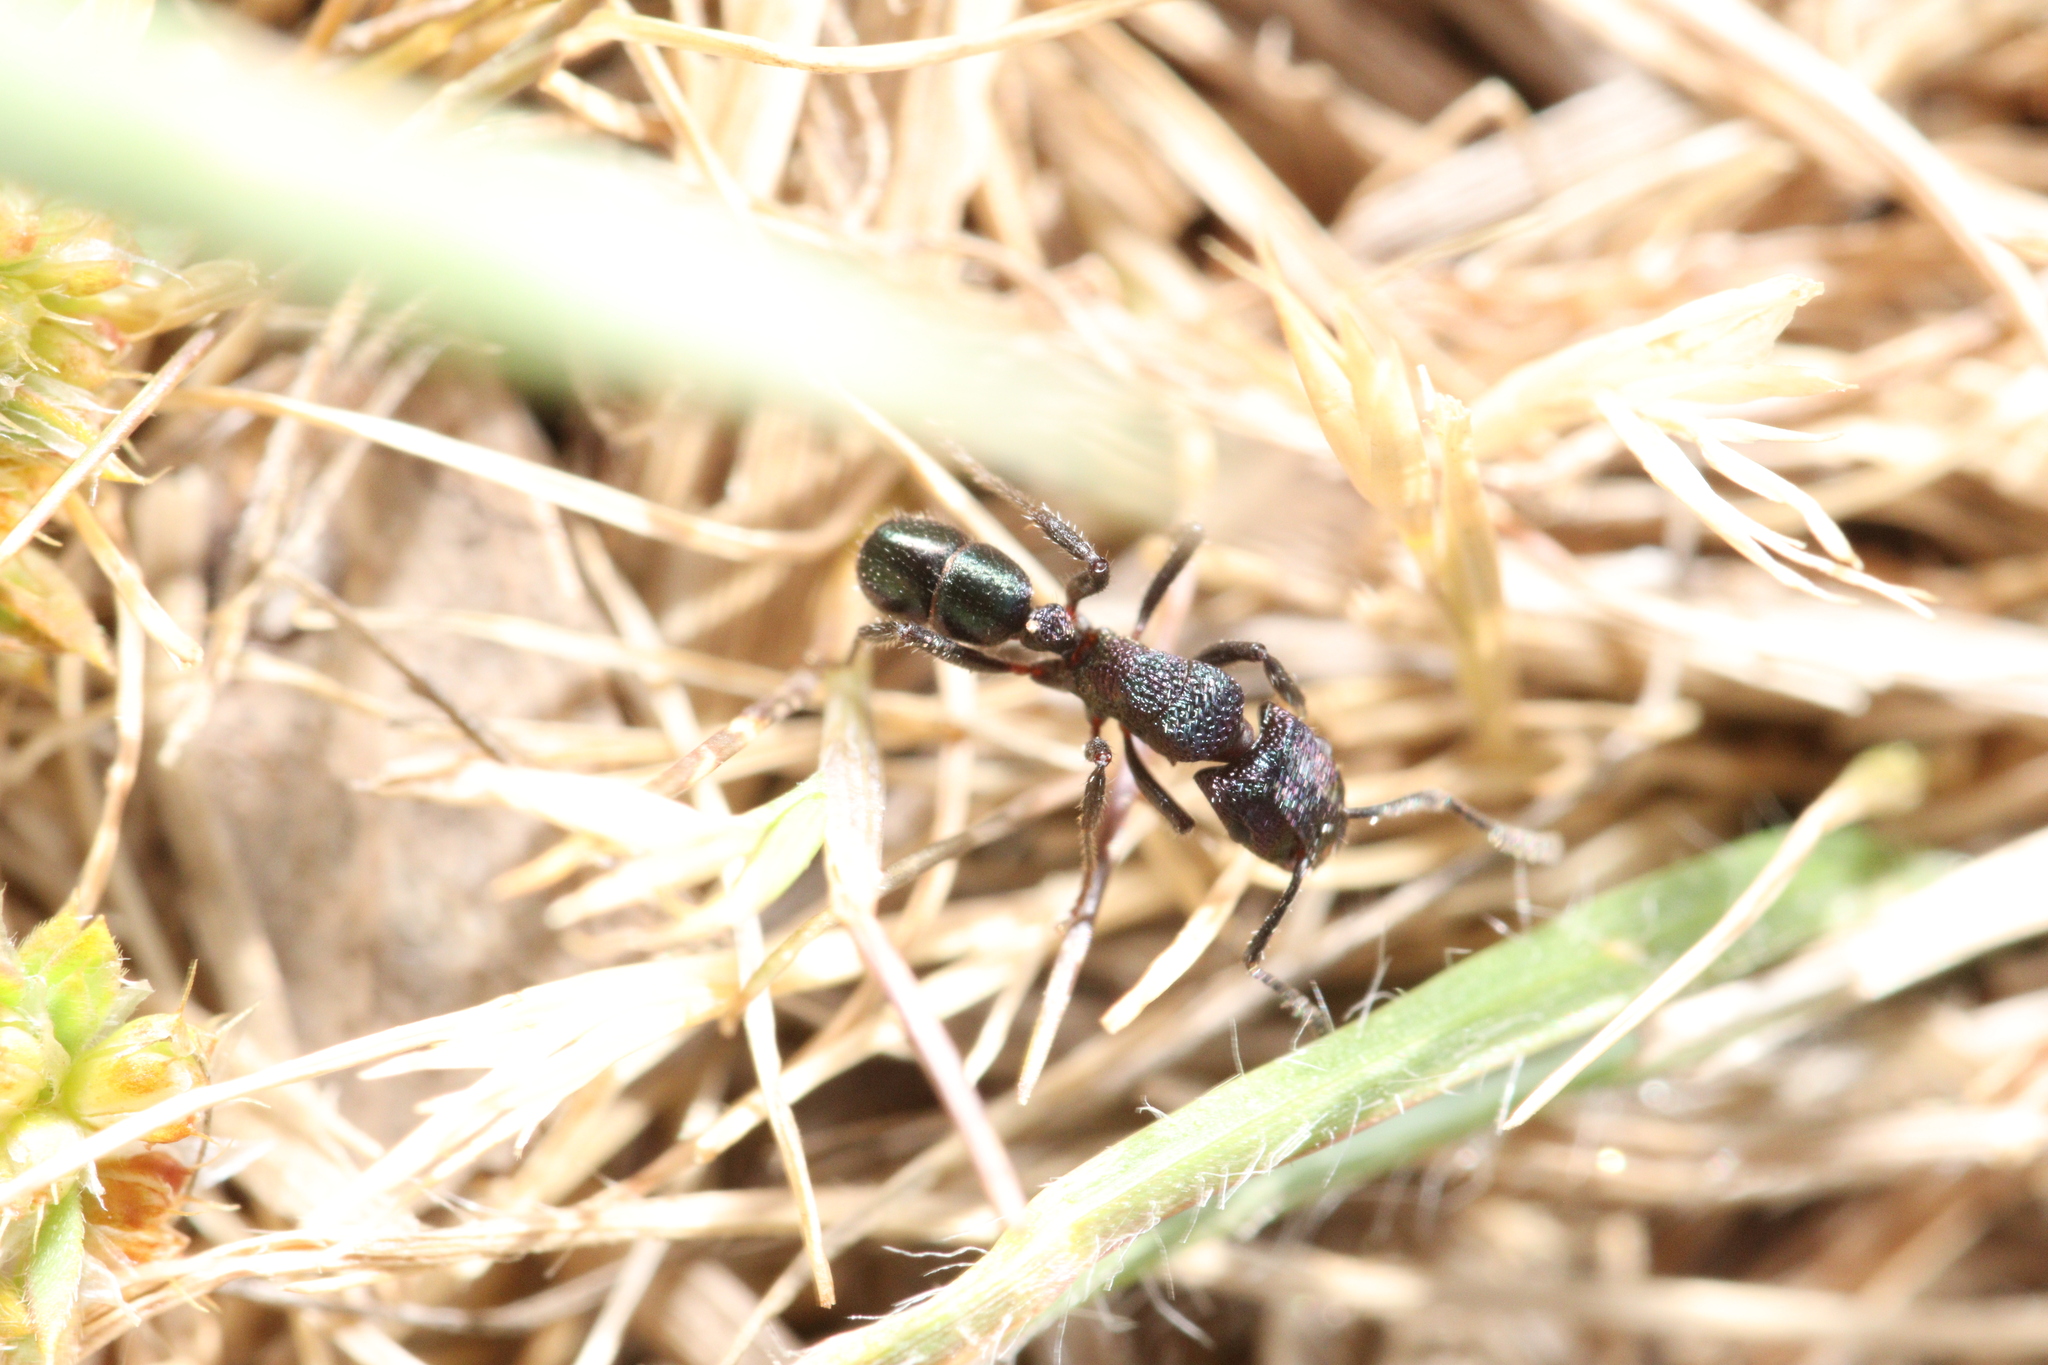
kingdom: Animalia
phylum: Arthropoda
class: Insecta
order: Hymenoptera
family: Formicidae
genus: Rhytidoponera
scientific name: Rhytidoponera metallica
